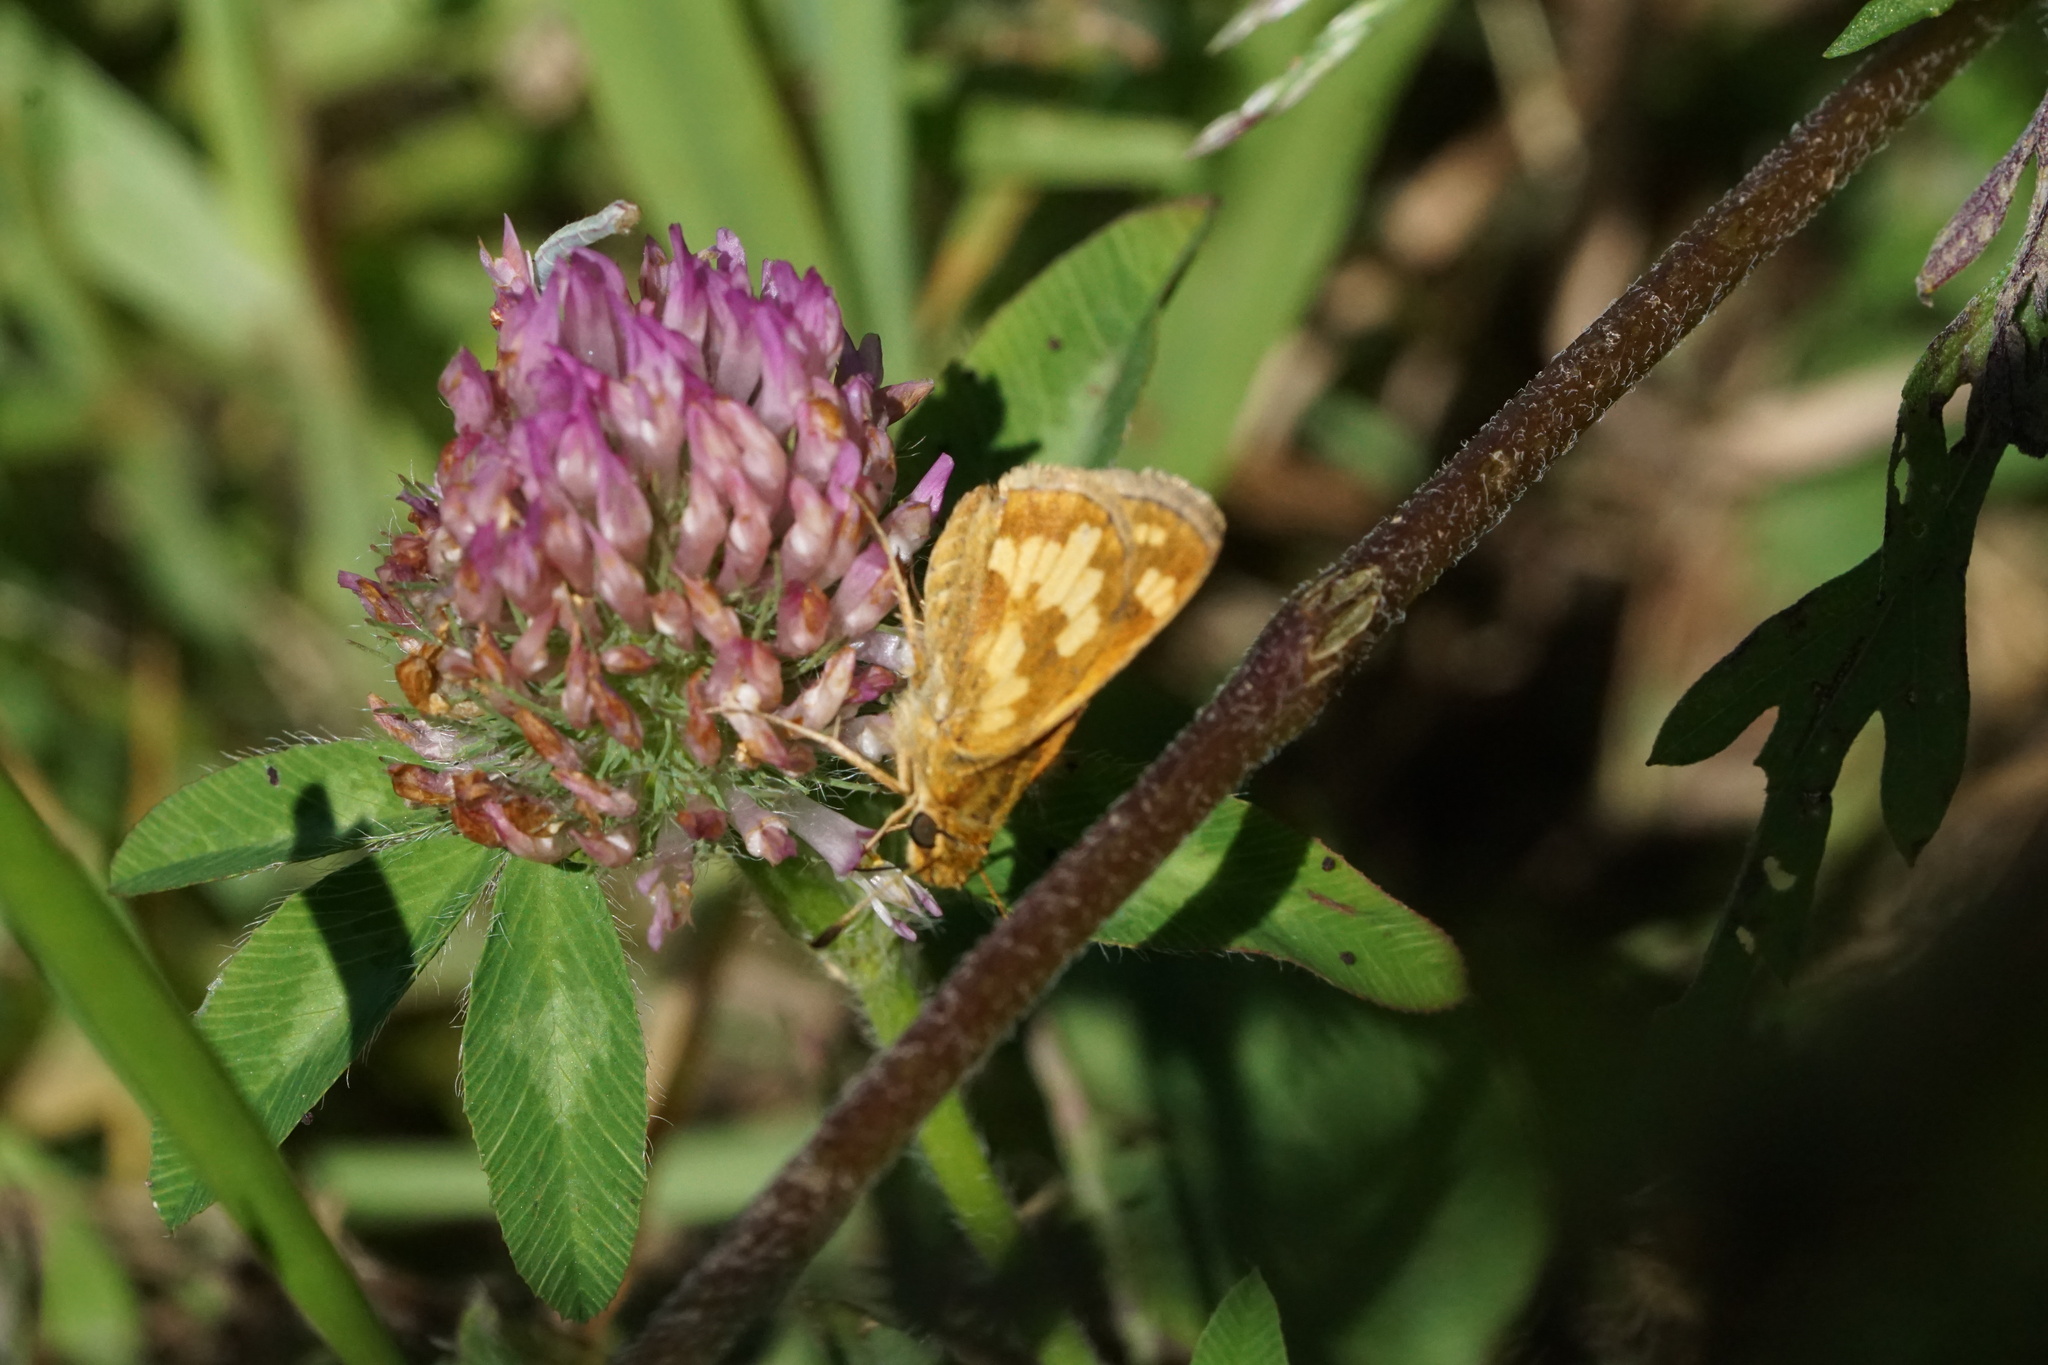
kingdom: Animalia
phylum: Arthropoda
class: Insecta
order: Lepidoptera
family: Hesperiidae
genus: Polites
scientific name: Polites coras
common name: Peck's skipper
